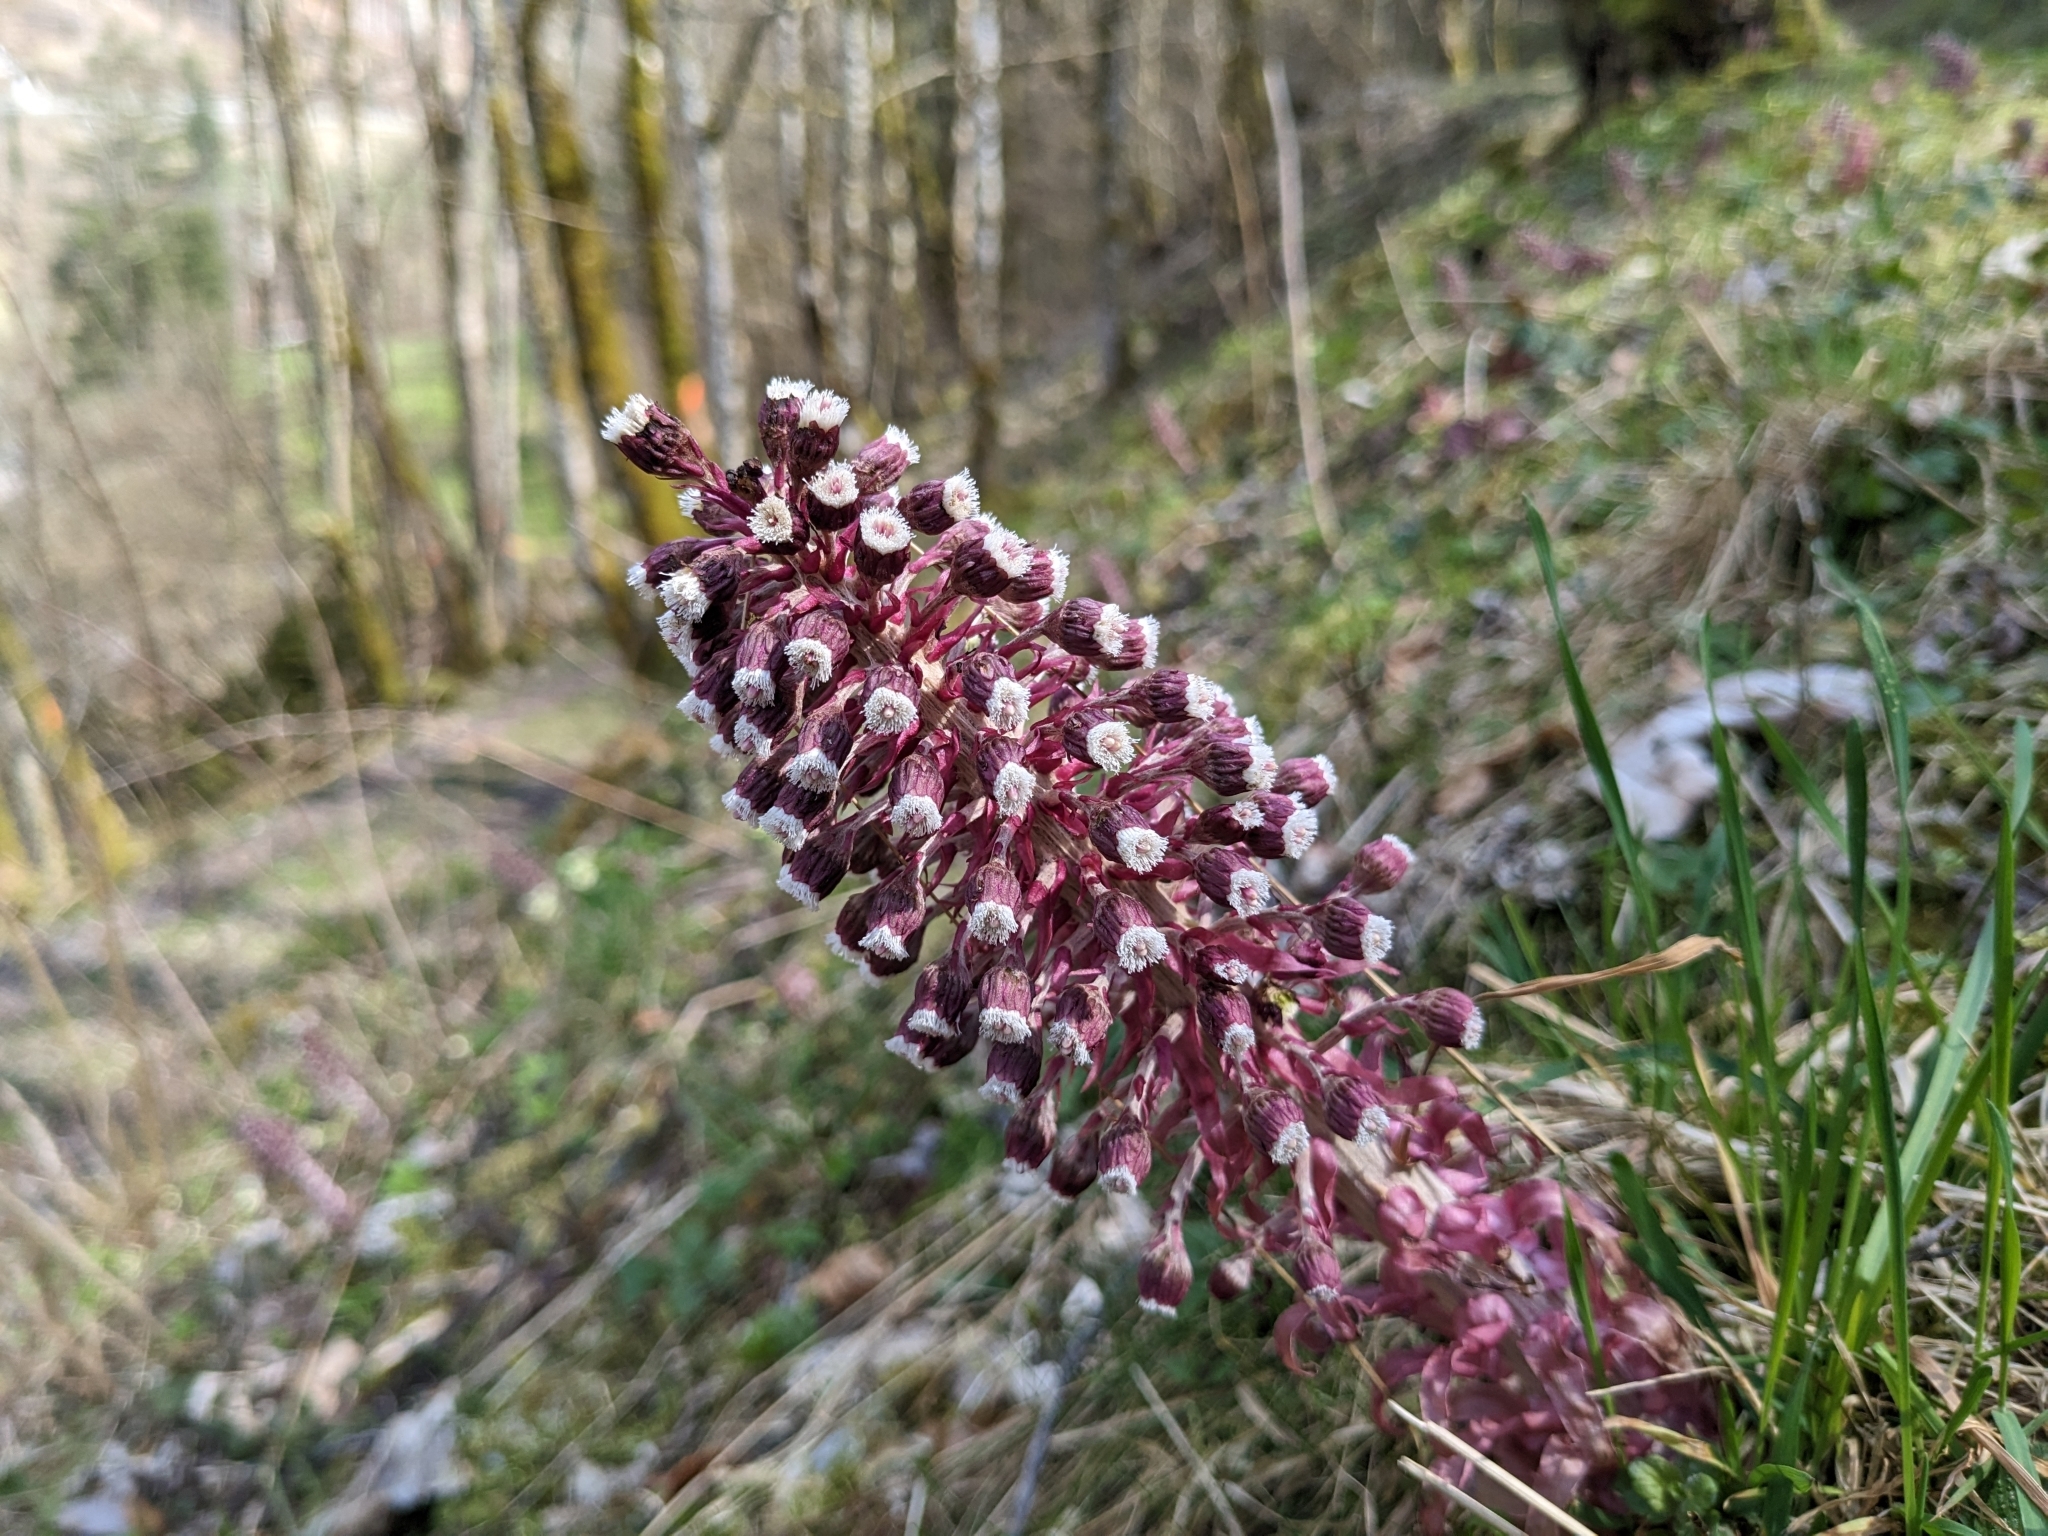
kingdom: Plantae
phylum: Tracheophyta
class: Magnoliopsida
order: Asterales
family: Asteraceae
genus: Petasites
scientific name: Petasites hybridus
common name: Butterbur
